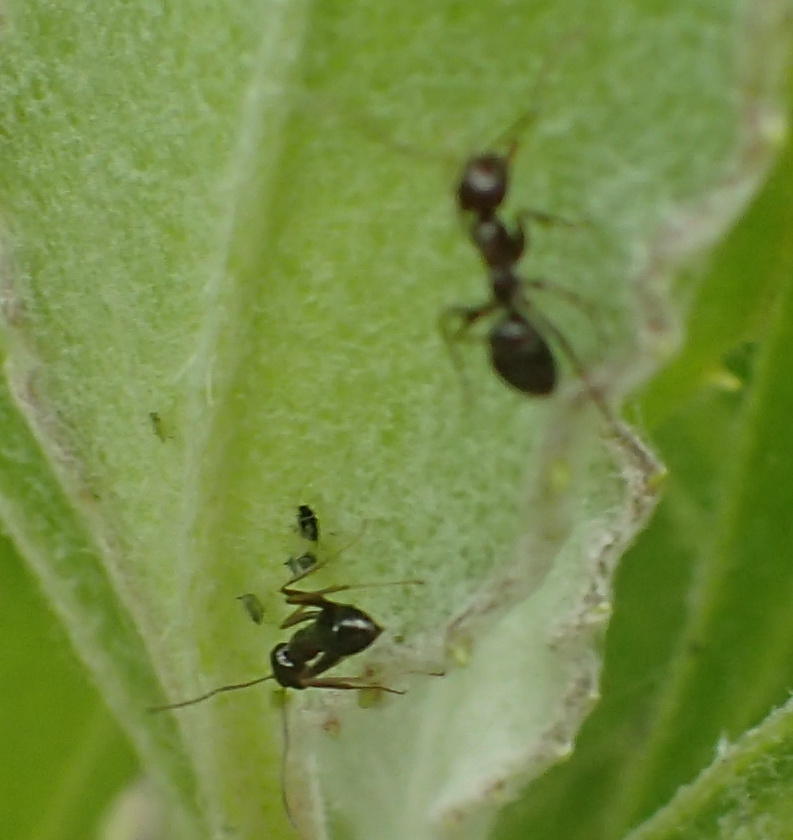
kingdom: Animalia
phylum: Arthropoda
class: Insecta
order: Hymenoptera
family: Formicidae
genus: Anoplolepis
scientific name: Anoplolepis steingroeveri
